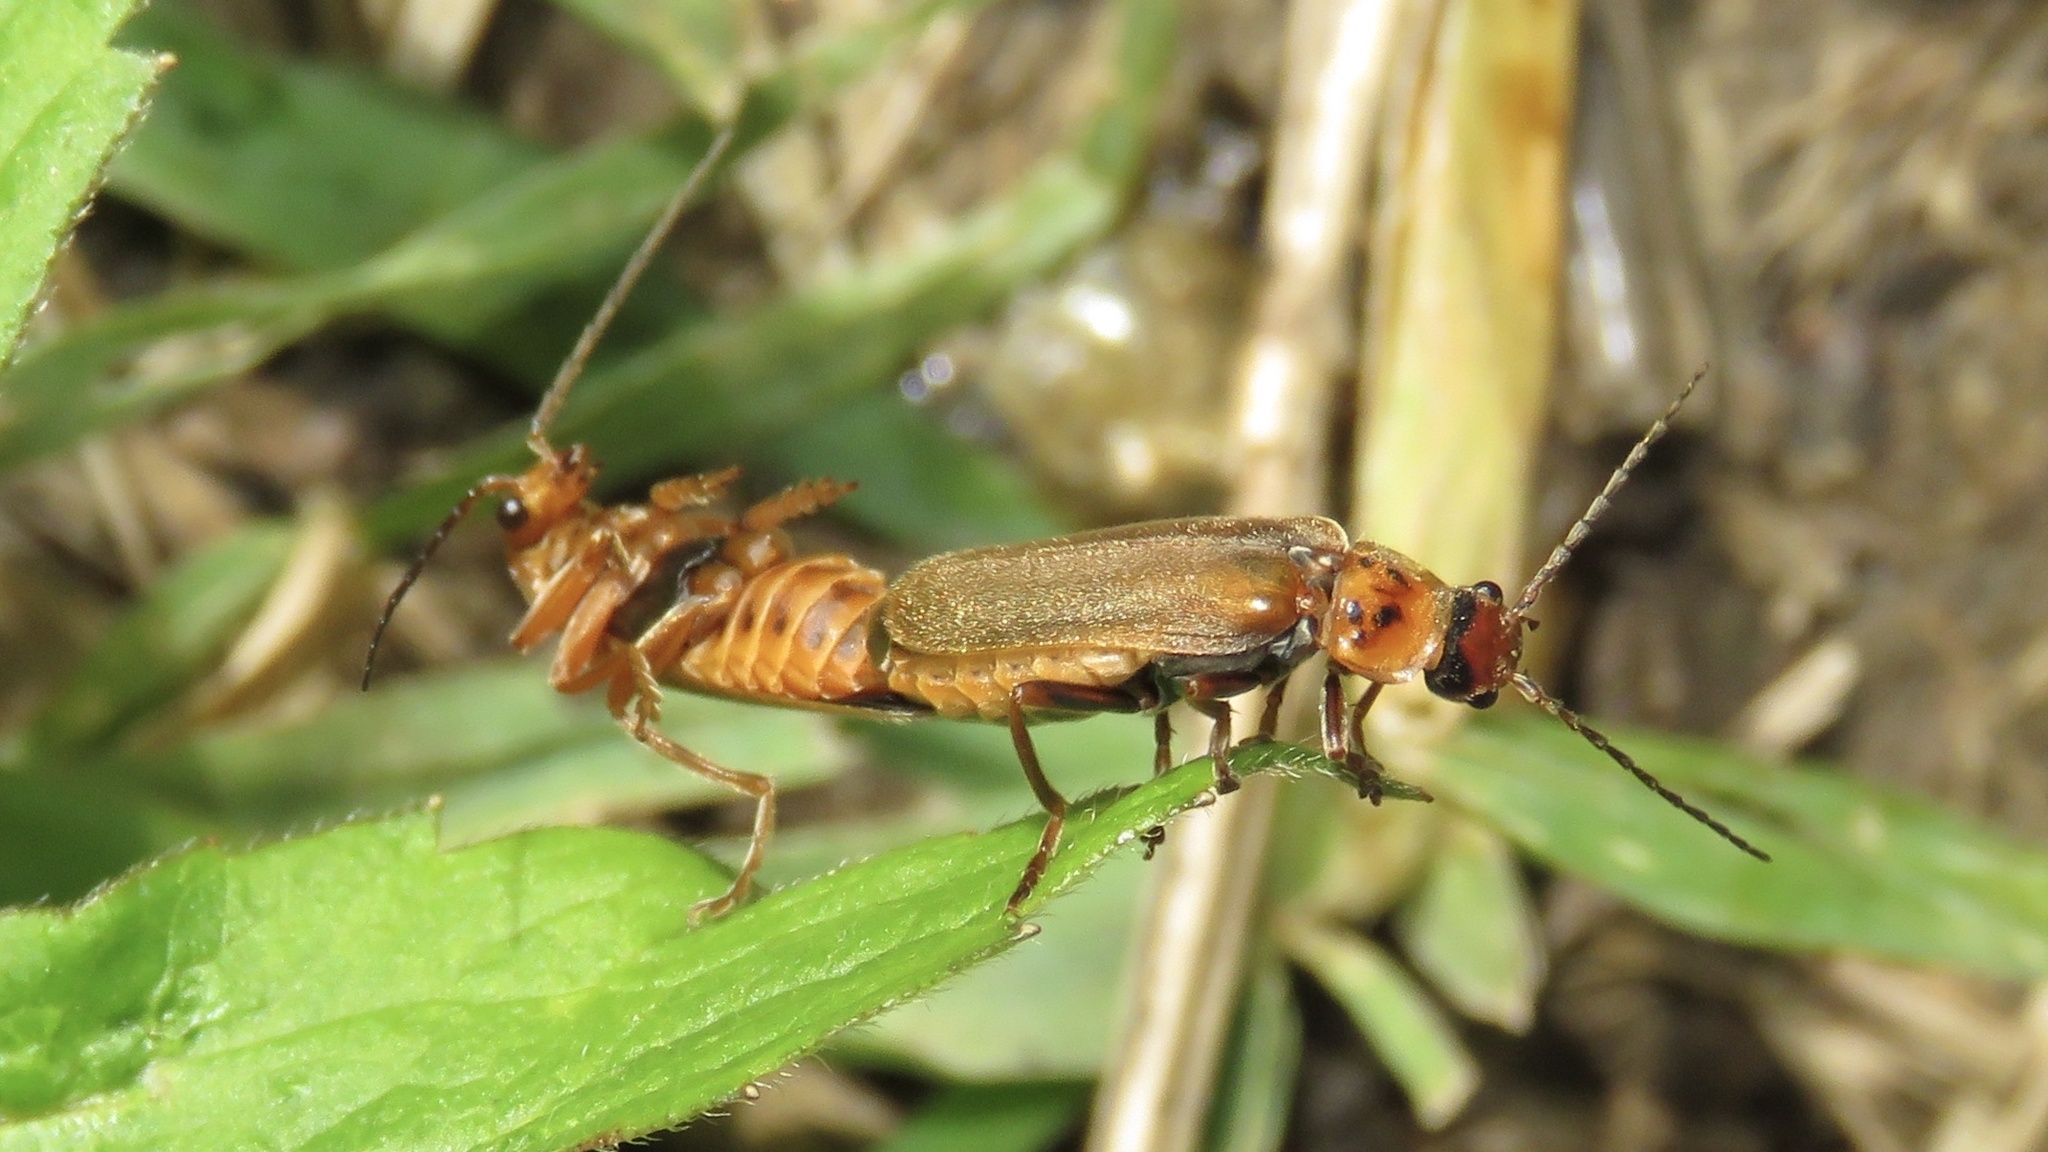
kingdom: Animalia
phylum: Arthropoda
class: Insecta
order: Coleoptera
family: Cantharidae
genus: Cantharis
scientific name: Cantharis rufa
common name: Red-spotted soldier beetle
